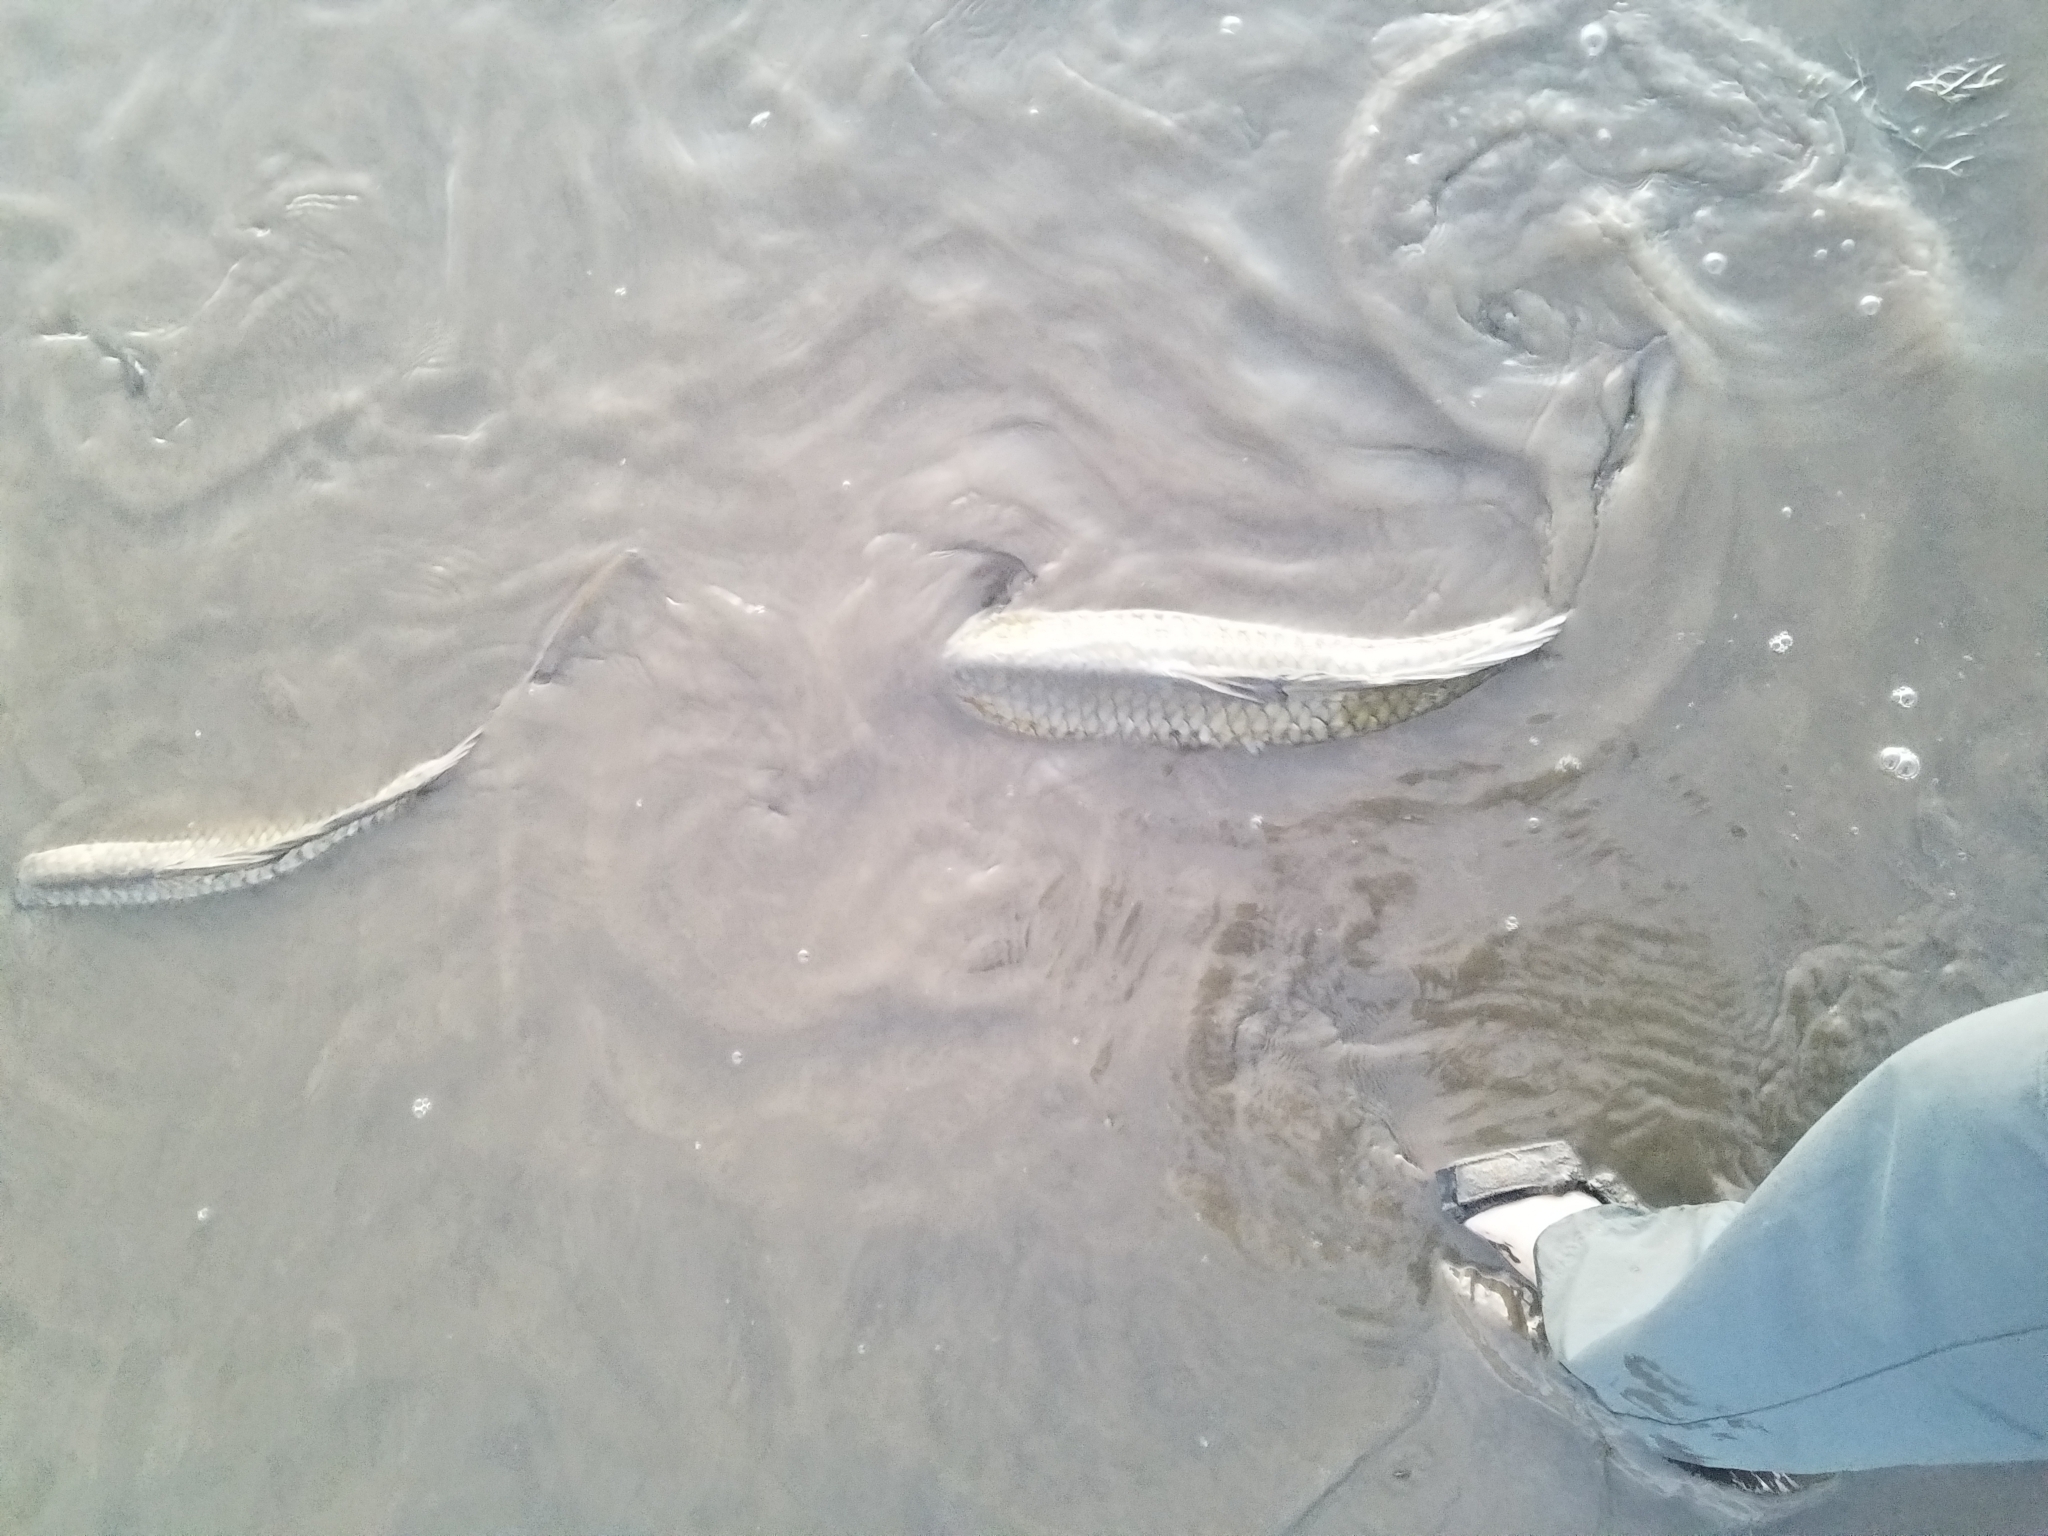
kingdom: Animalia
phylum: Chordata
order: Cypriniformes
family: Cyprinidae
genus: Cyprinus
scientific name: Cyprinus carpio
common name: Common carp
